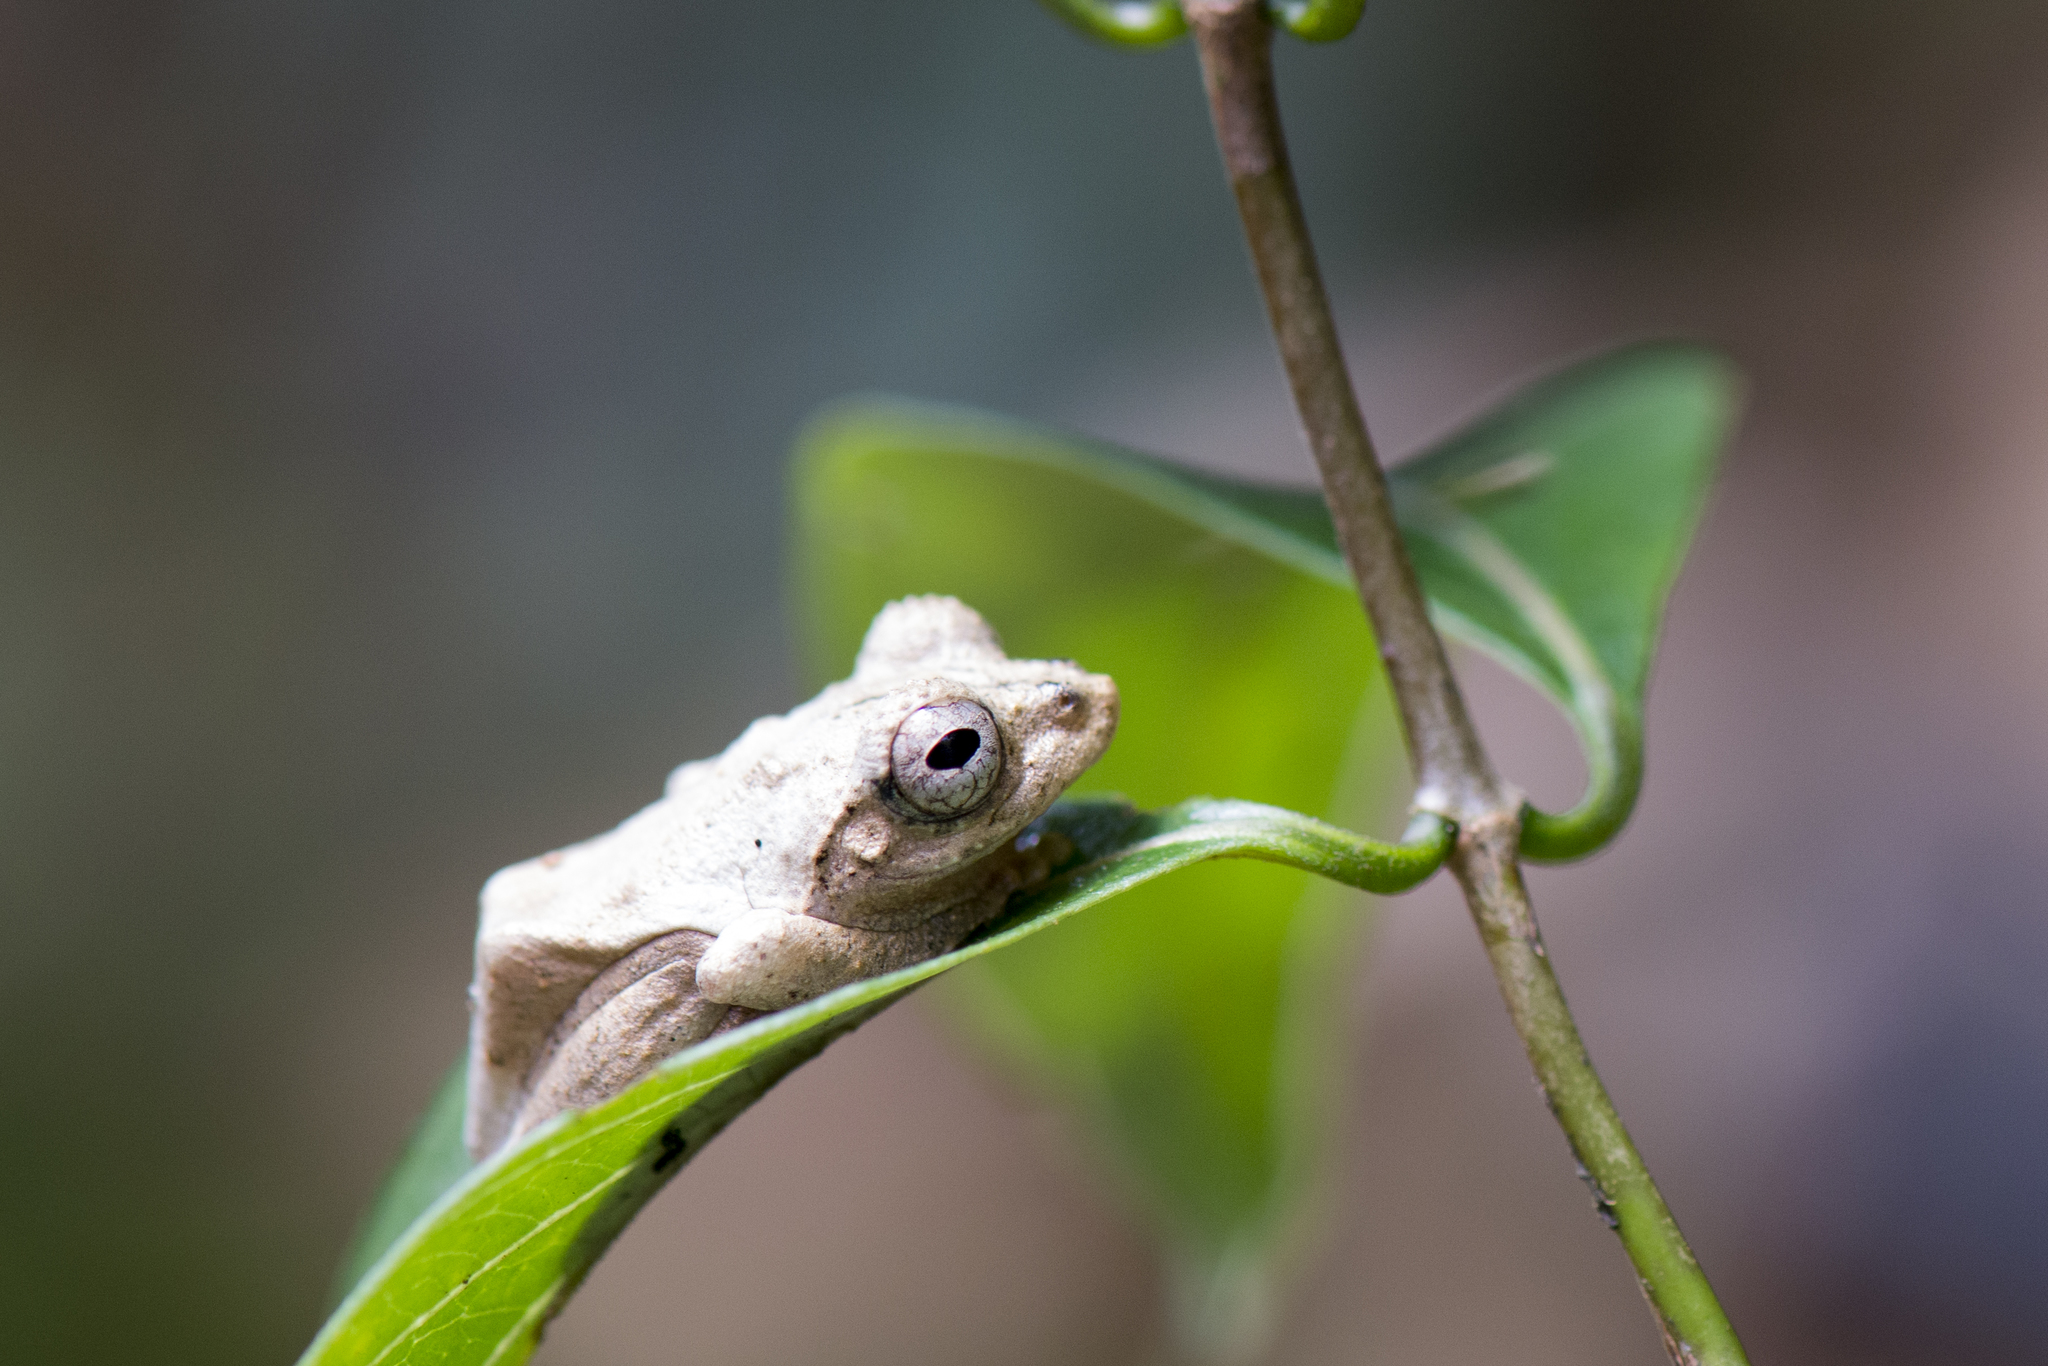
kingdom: Animalia
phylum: Chordata
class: Amphibia
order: Anura
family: Rhacophoridae
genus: Kurixalus
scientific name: Kurixalus idiootocus
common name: Temple treefrog
